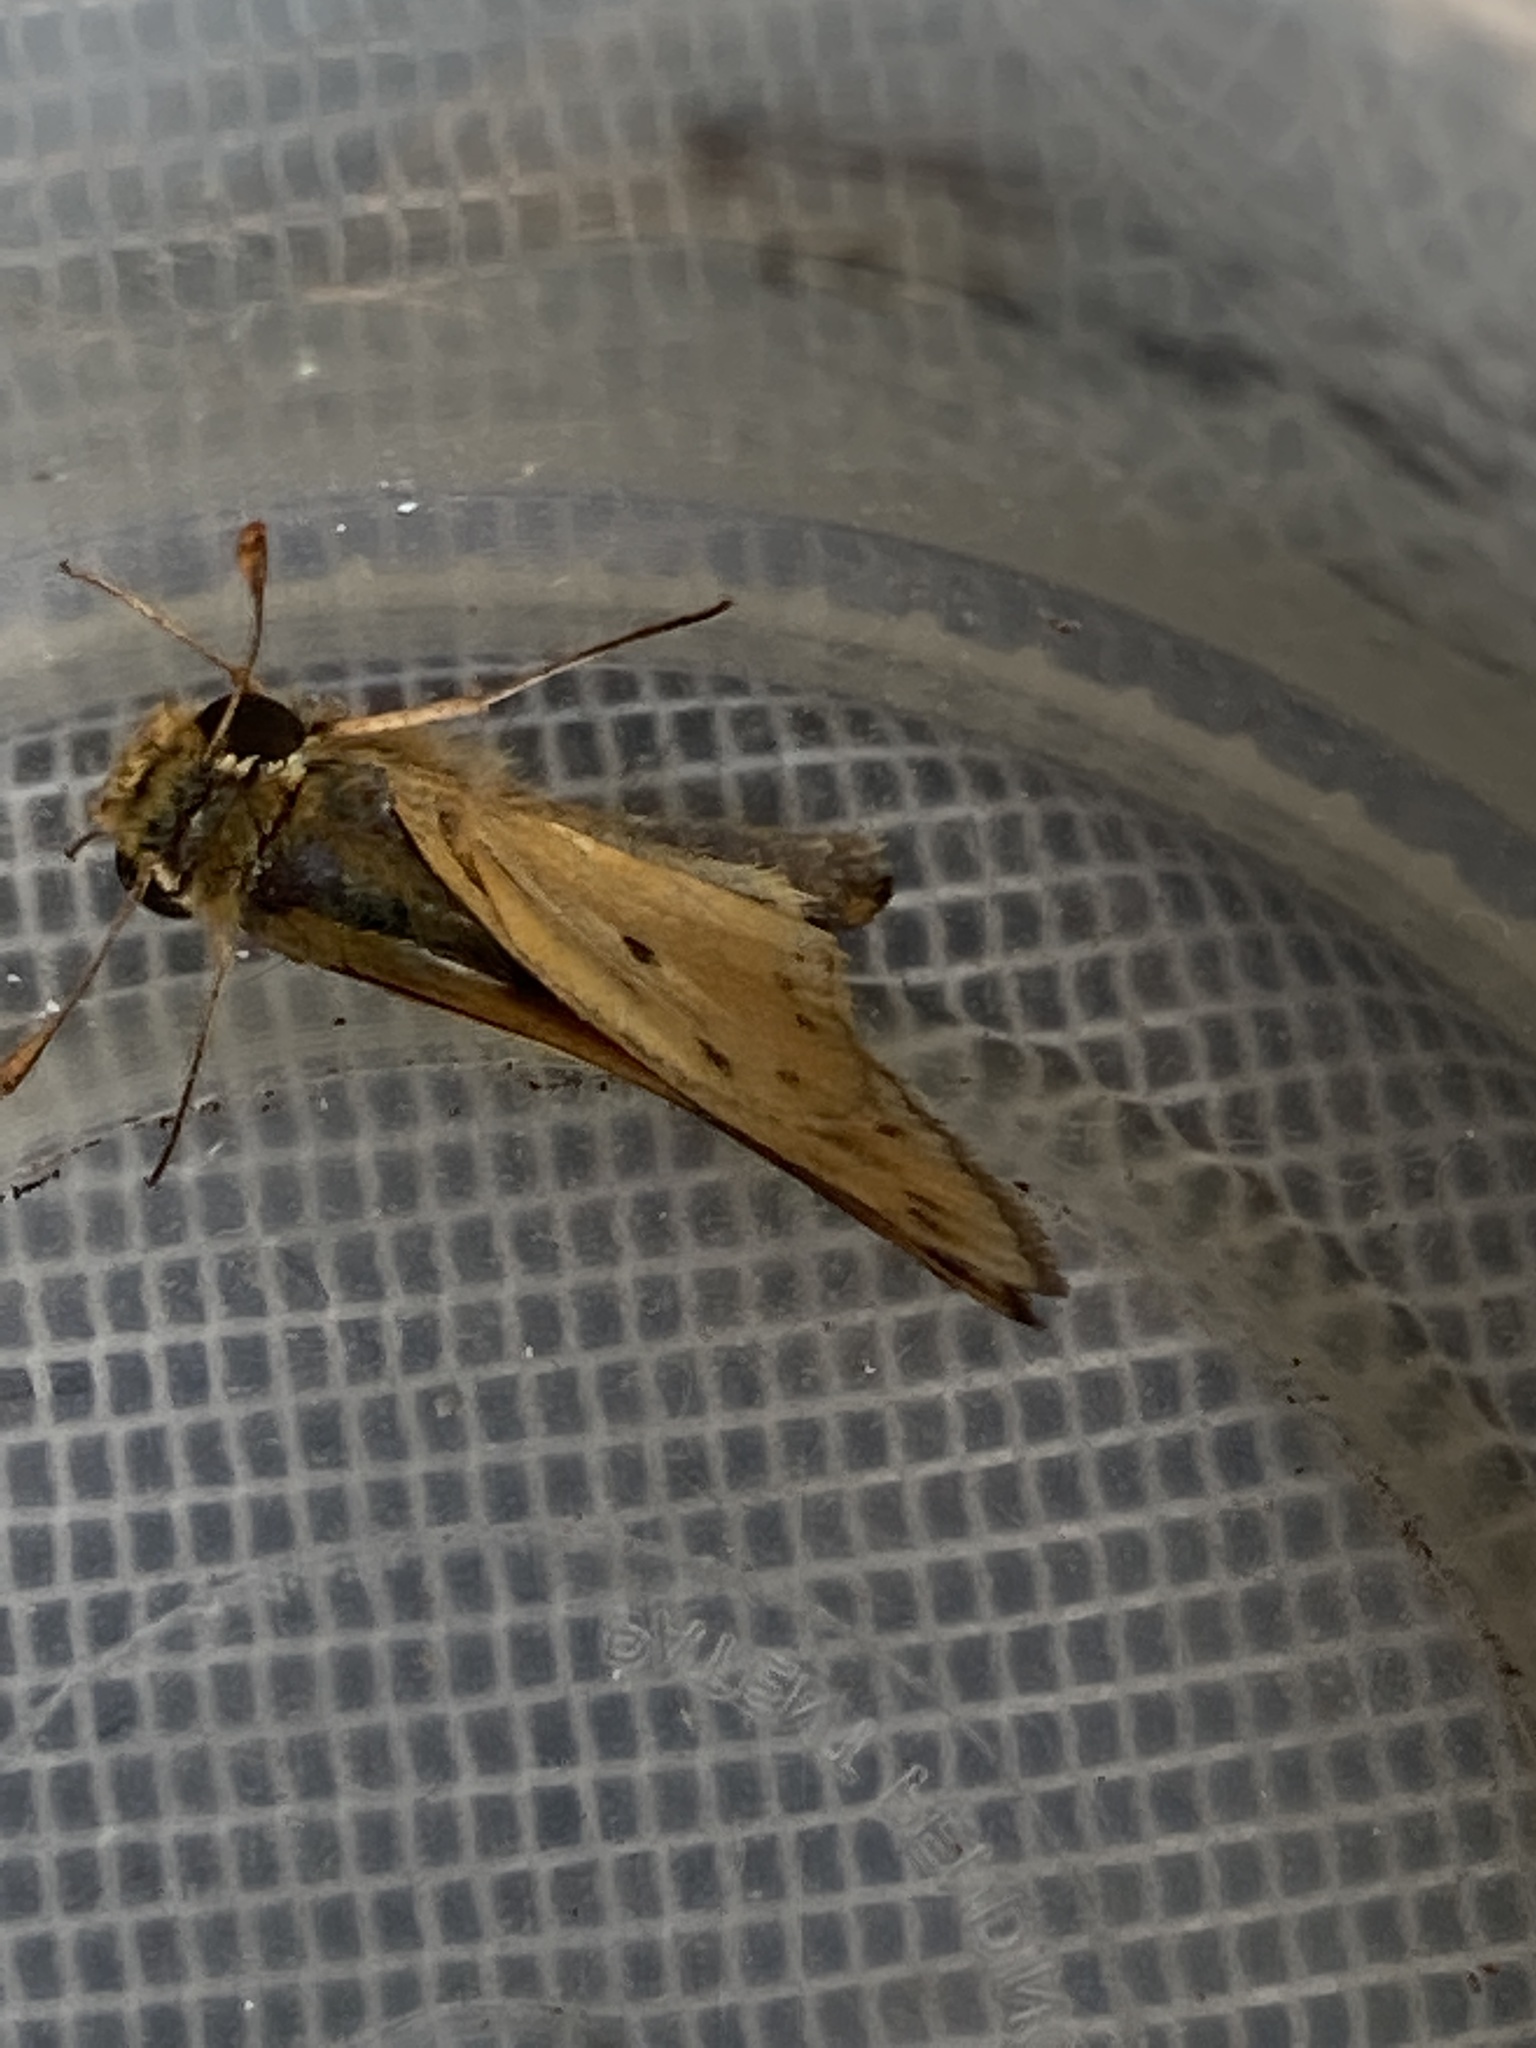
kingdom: Animalia
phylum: Arthropoda
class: Insecta
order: Lepidoptera
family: Hesperiidae
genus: Hylephila
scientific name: Hylephila phyleus
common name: Fiery skipper
